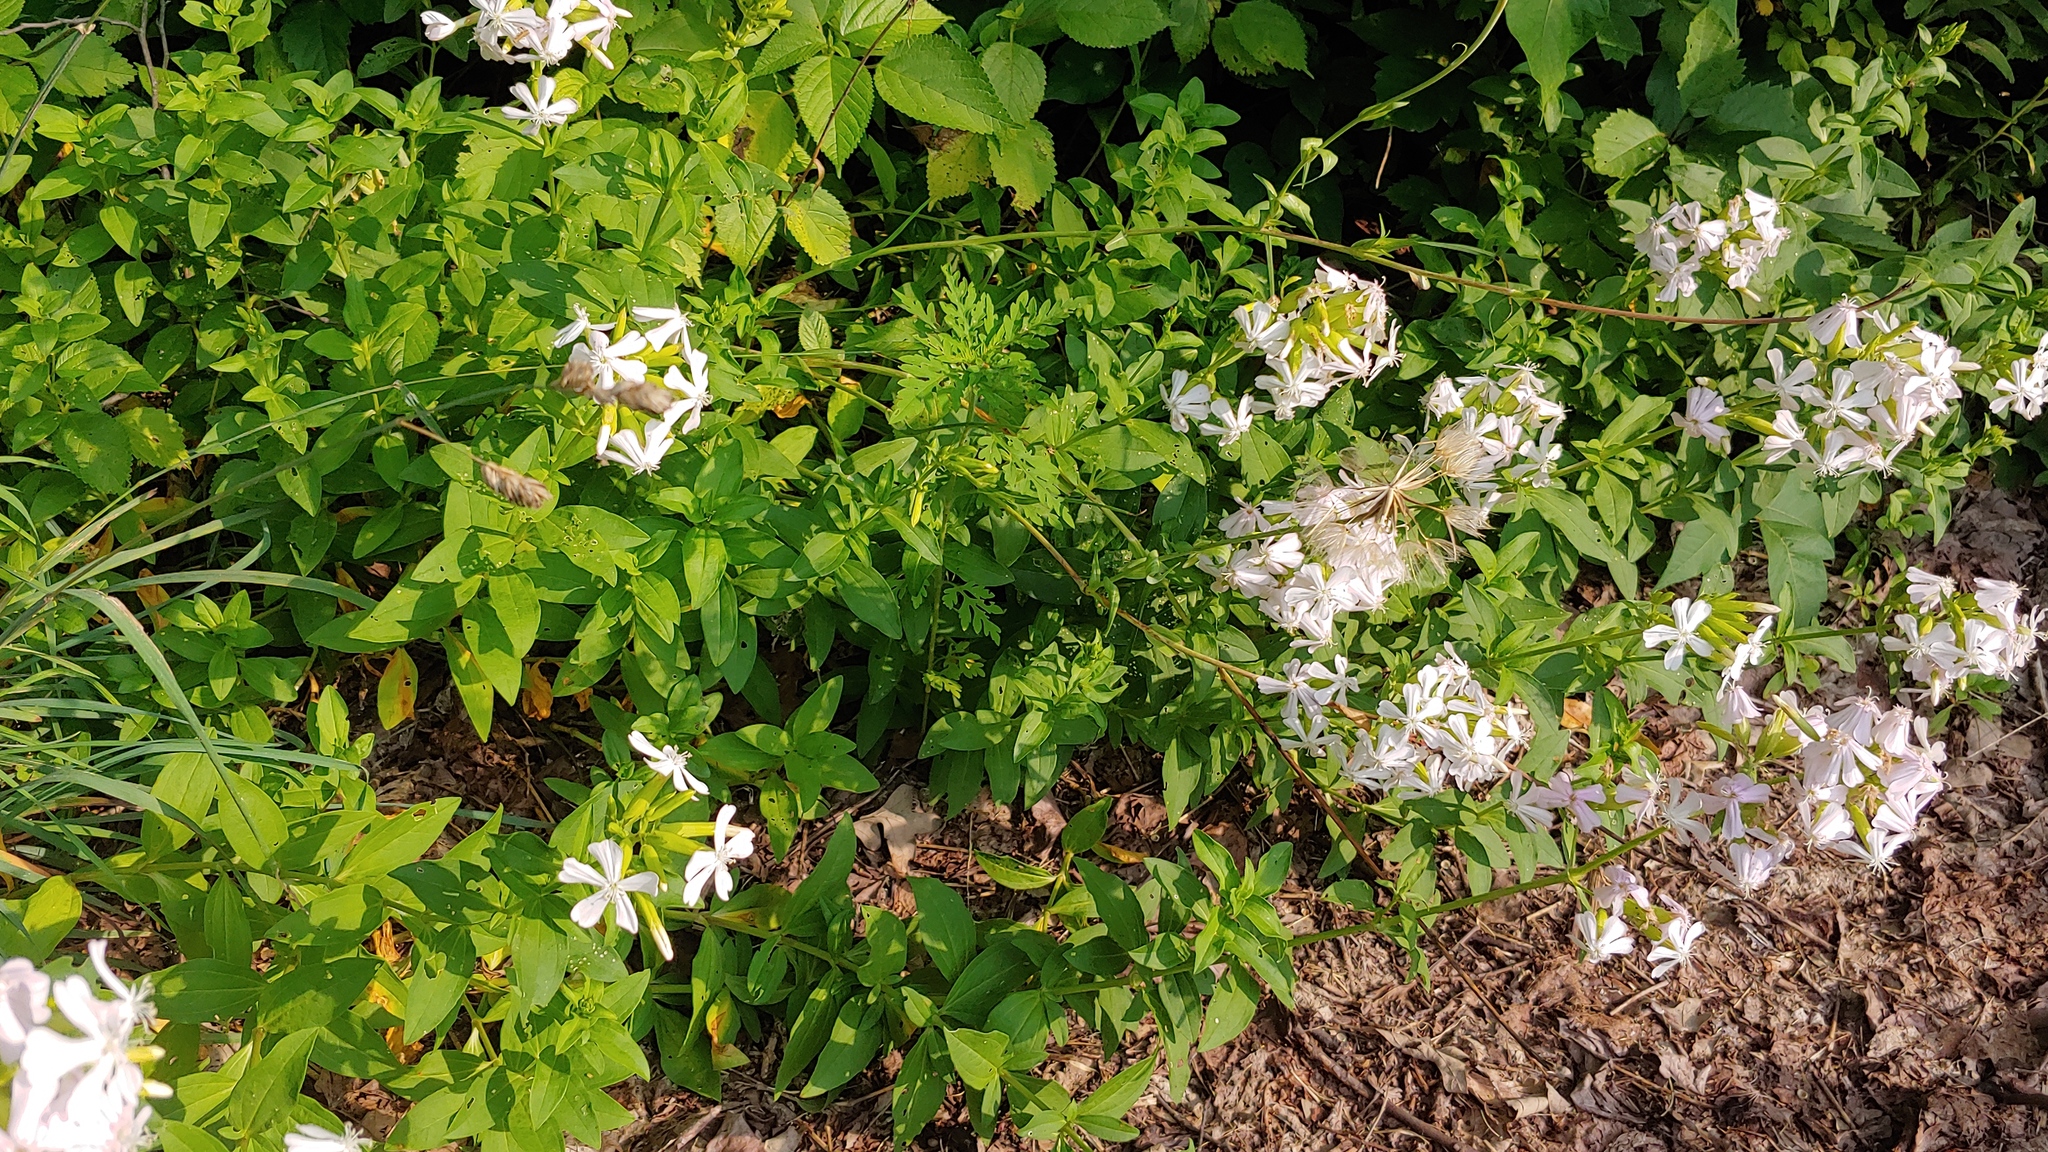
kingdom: Plantae
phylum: Tracheophyta
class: Magnoliopsida
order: Caryophyllales
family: Caryophyllaceae
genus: Saponaria
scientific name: Saponaria officinalis
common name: Soapwort
